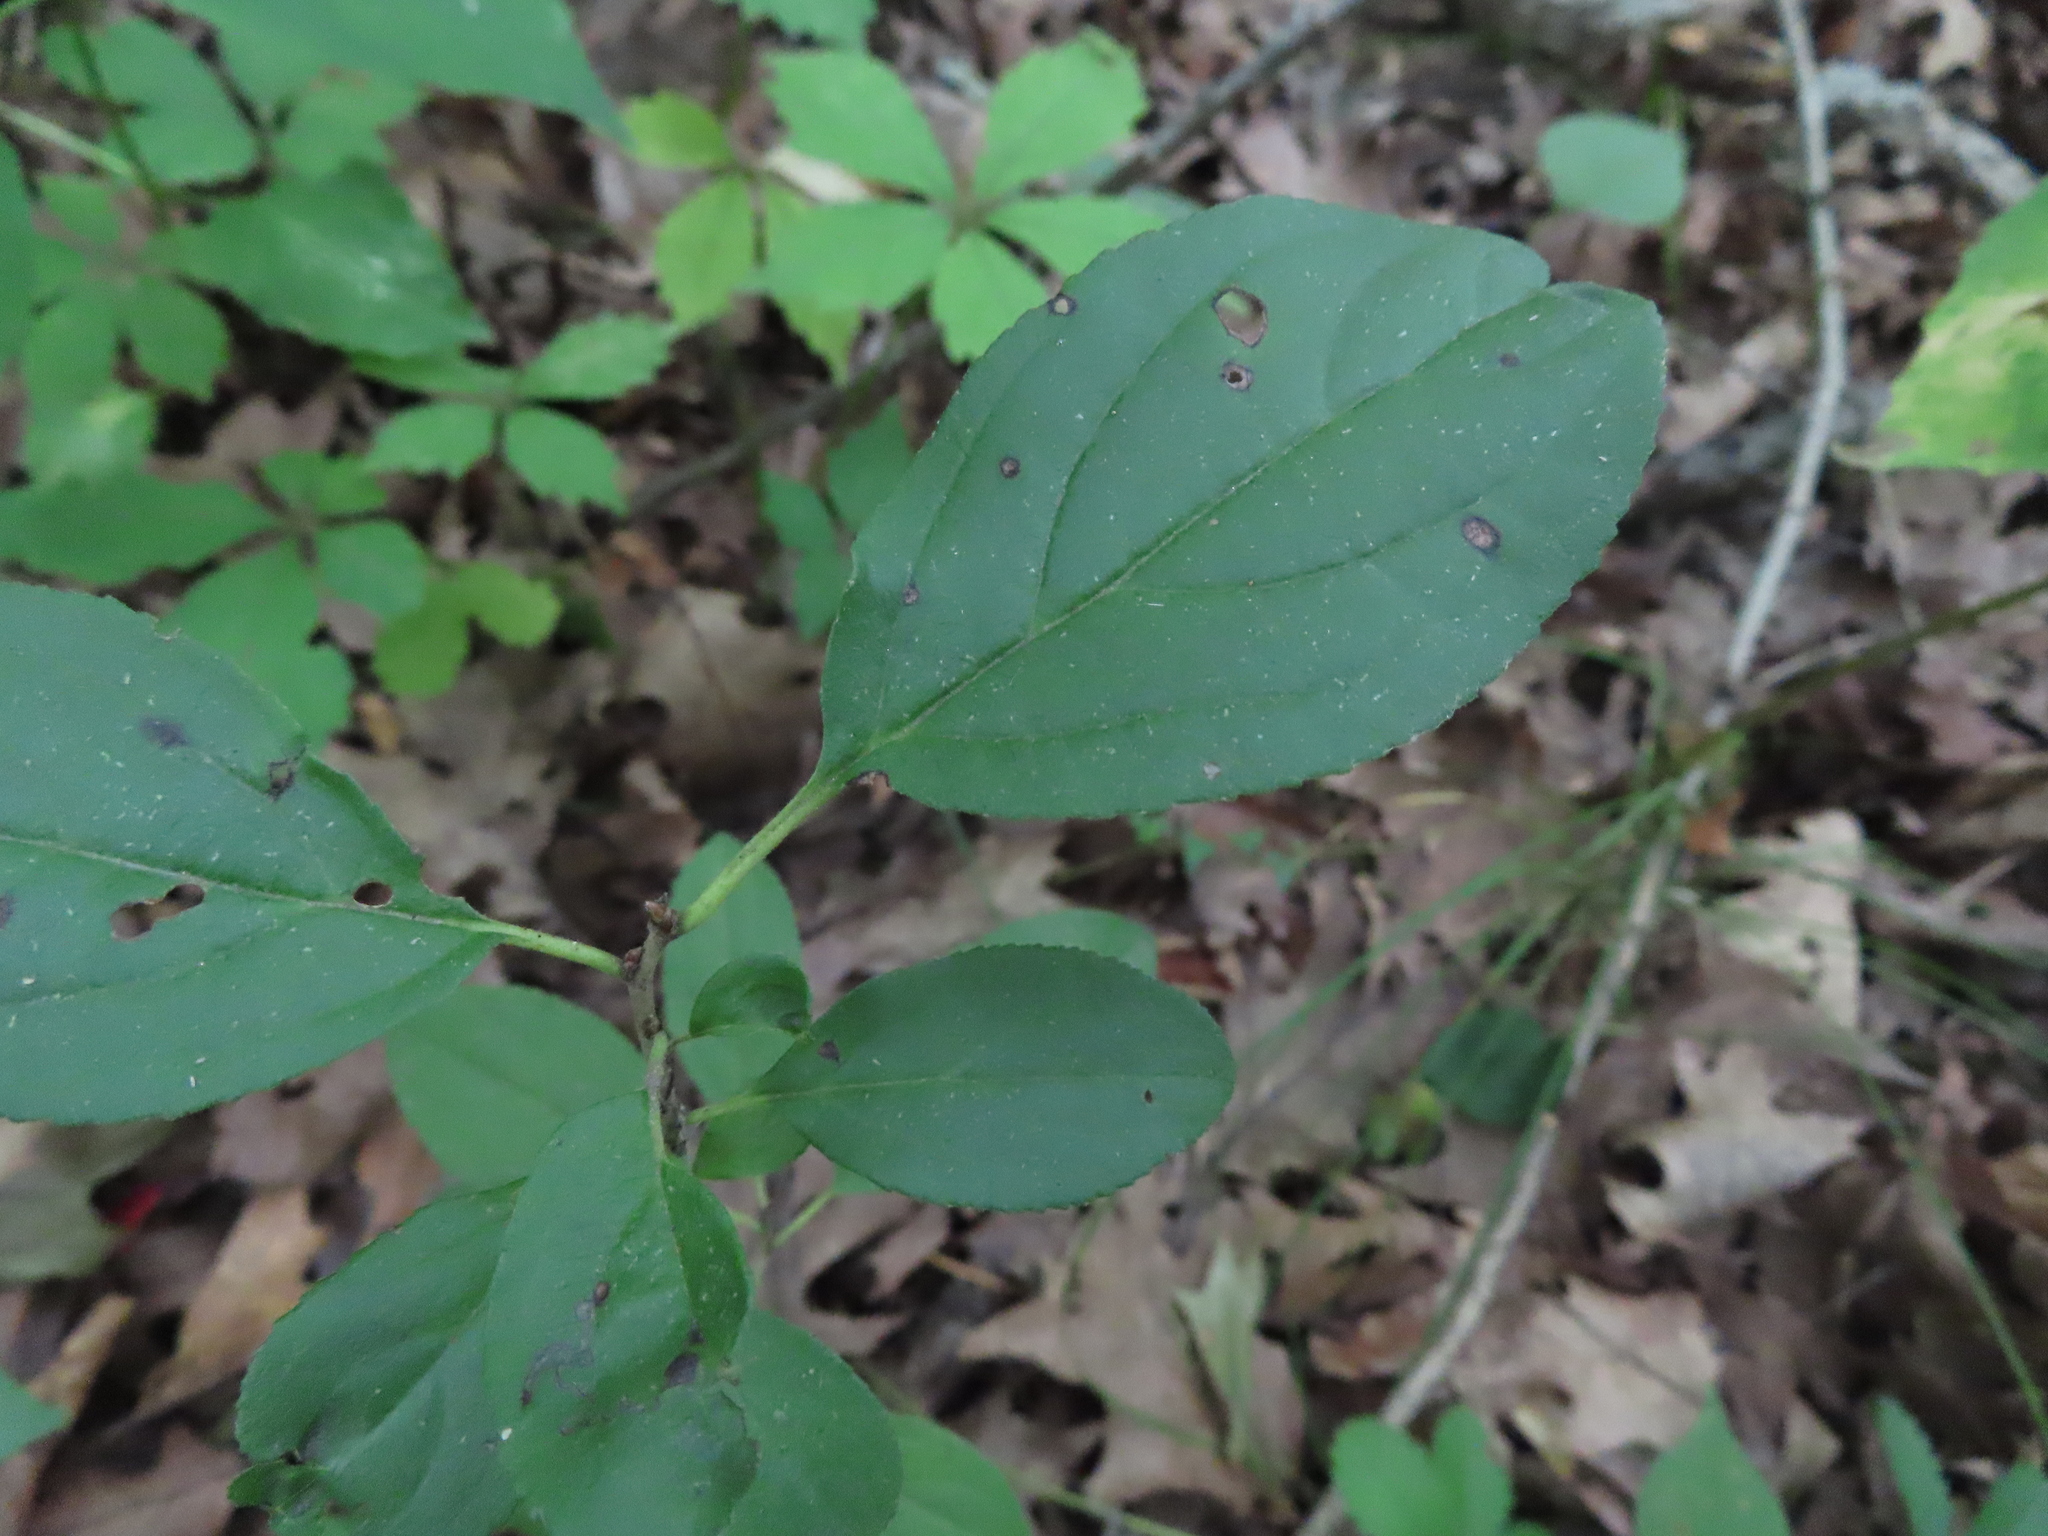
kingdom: Plantae
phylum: Tracheophyta
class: Magnoliopsida
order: Rosales
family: Rhamnaceae
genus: Rhamnus
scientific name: Rhamnus cathartica
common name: Common buckthorn
